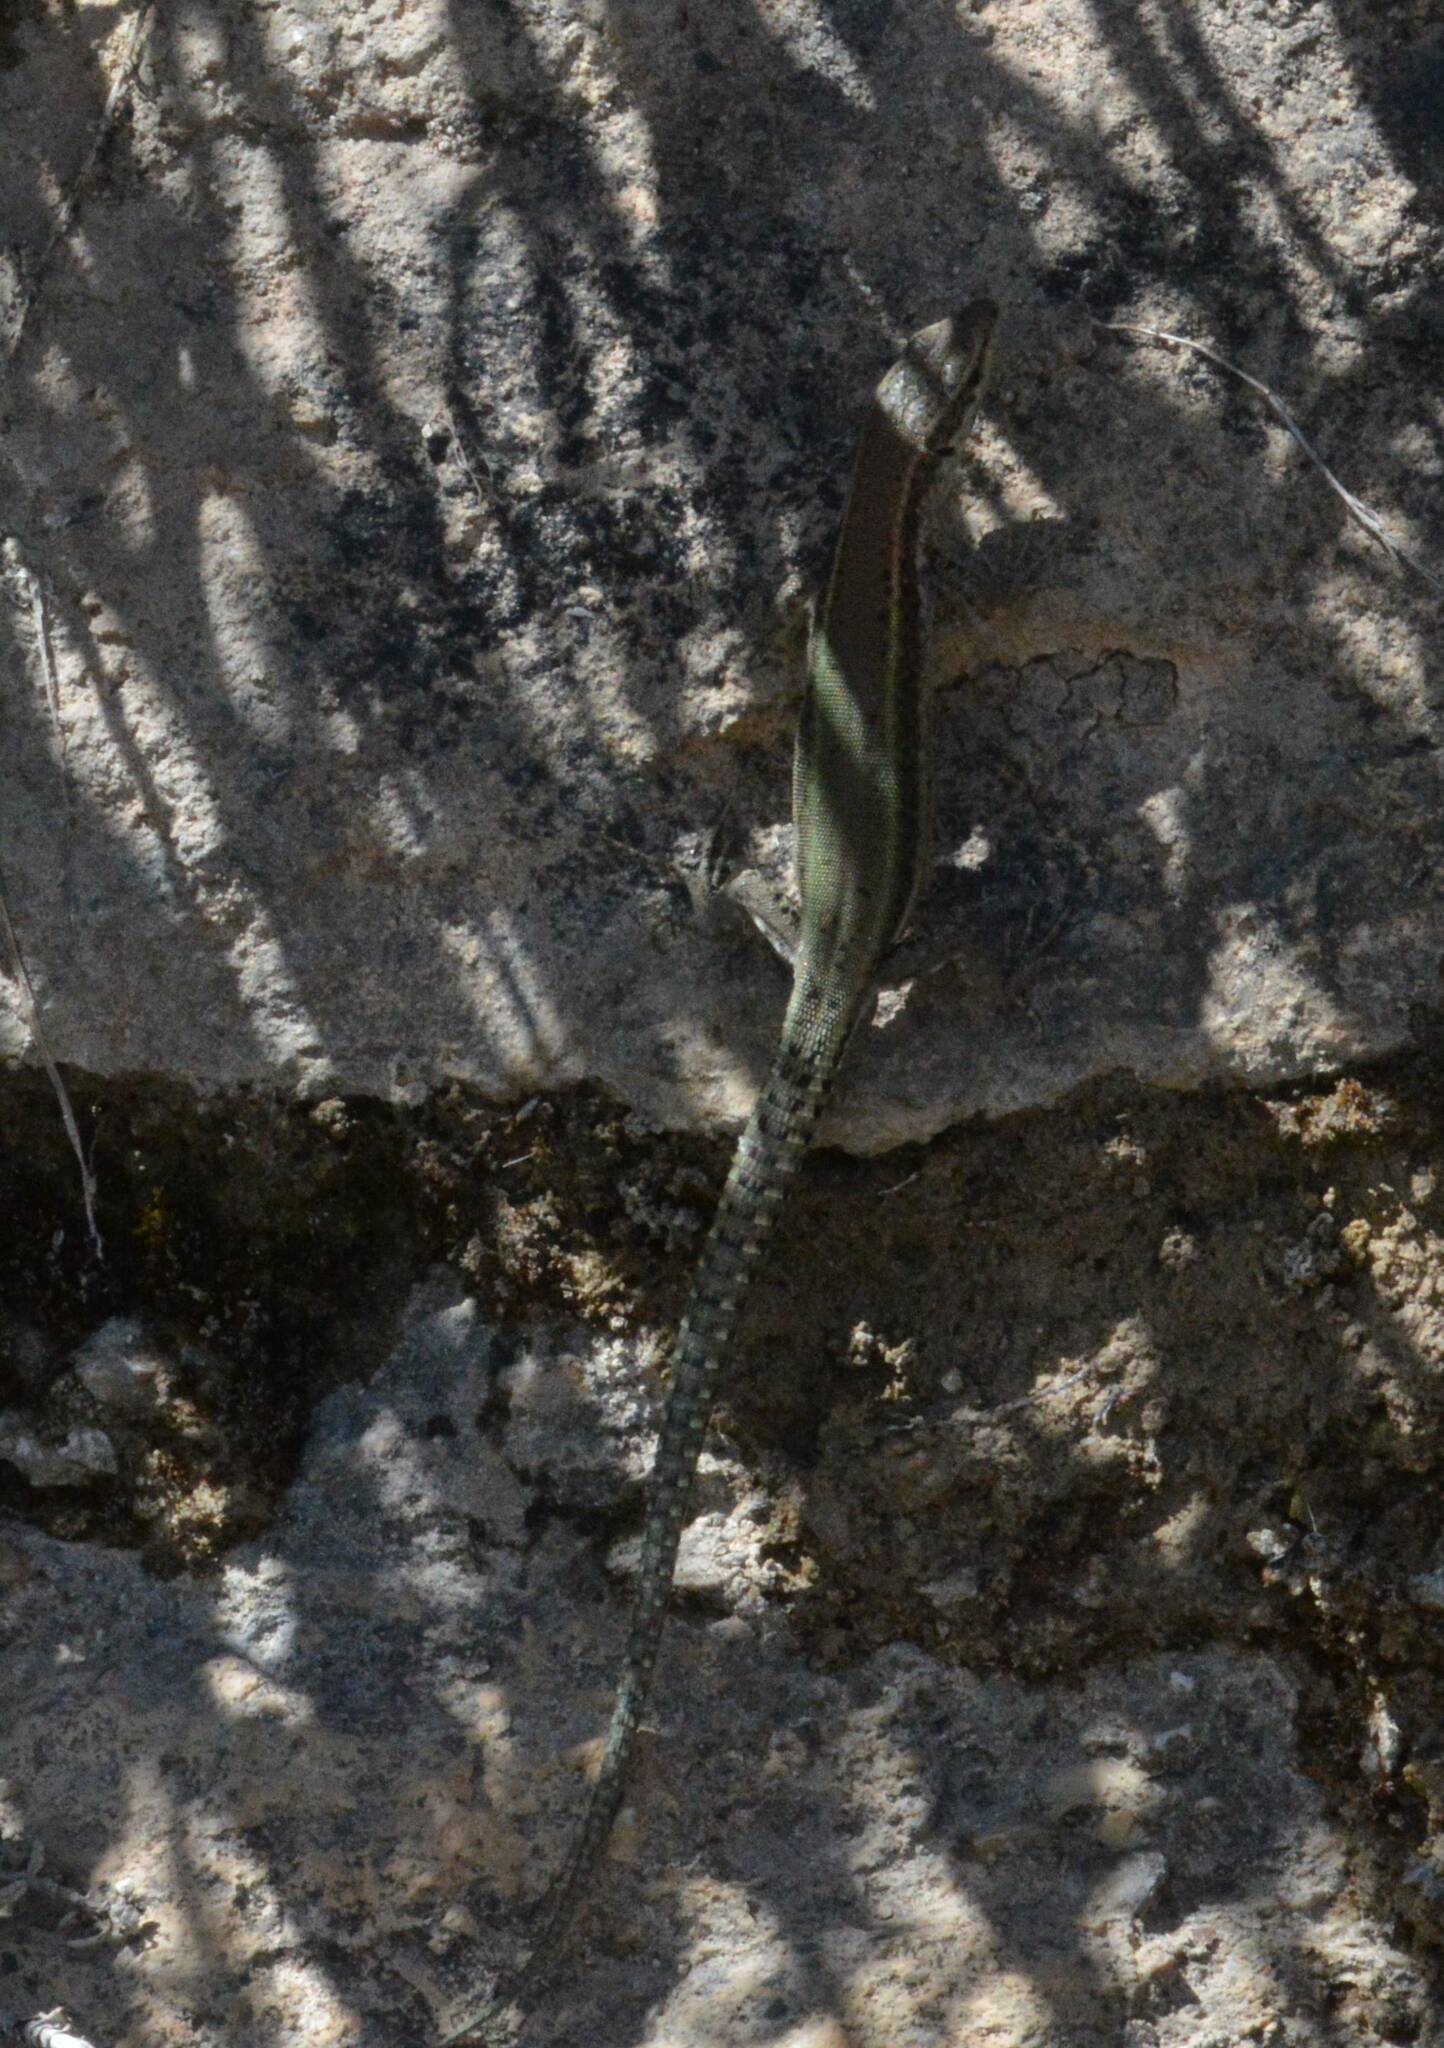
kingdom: Animalia
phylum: Chordata
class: Squamata
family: Lacertidae
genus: Podarcis
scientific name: Podarcis vaucheri
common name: Vaucher's wall lizard
